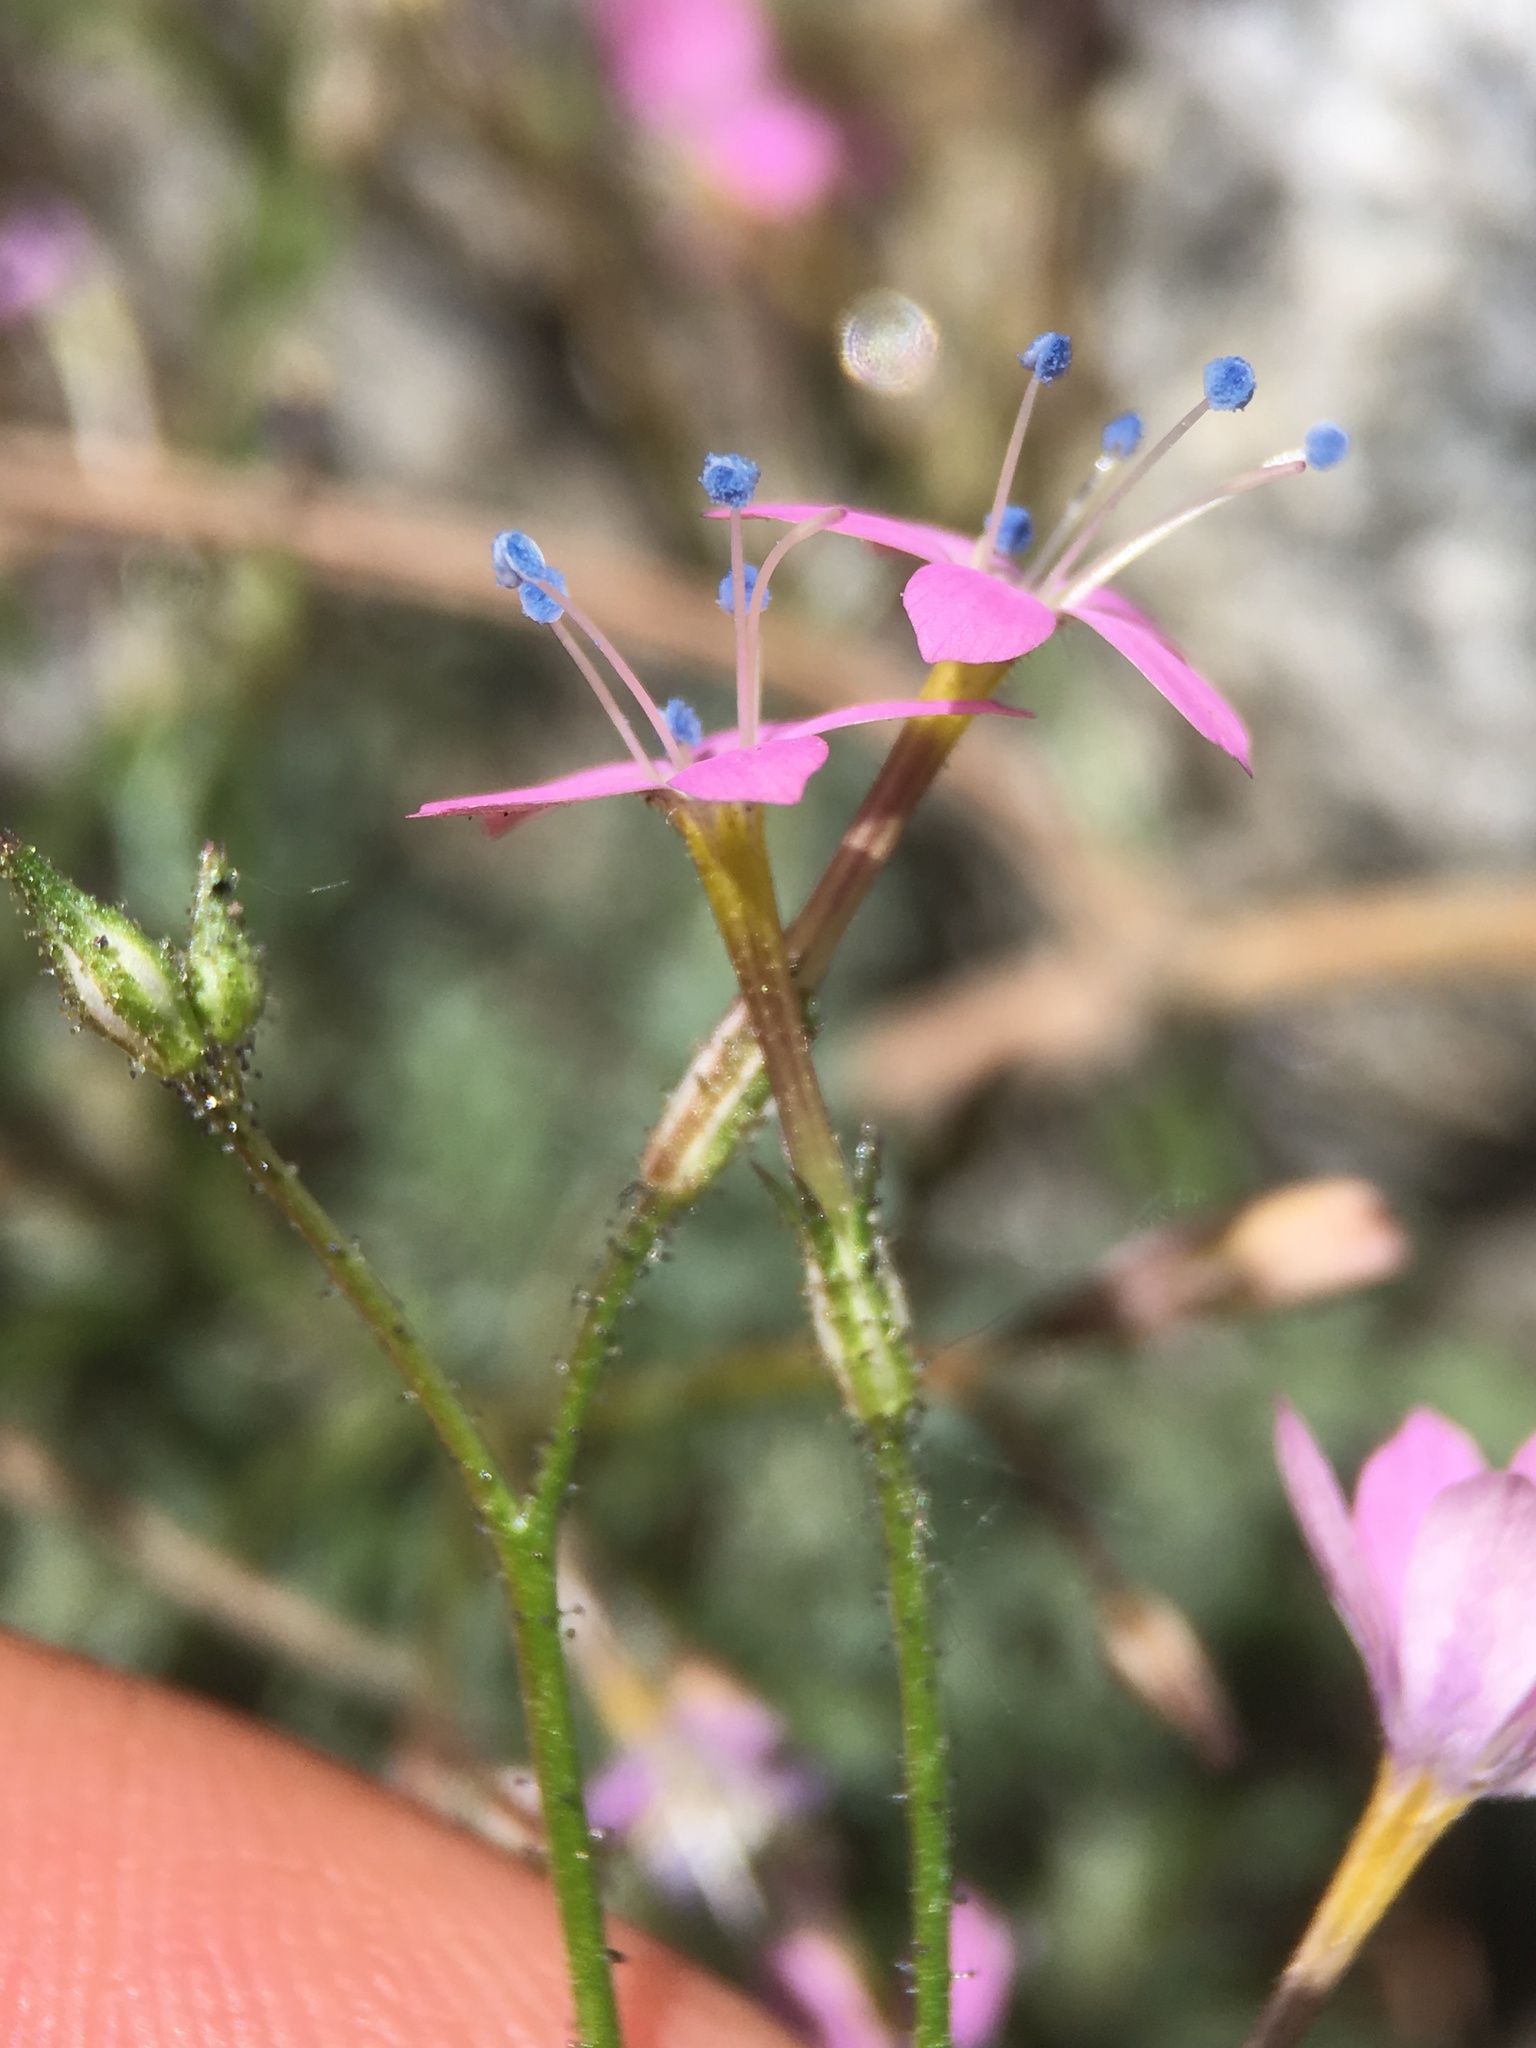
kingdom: Plantae
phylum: Tracheophyta
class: Magnoliopsida
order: Ericales
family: Polemoniaceae
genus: Gilia
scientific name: Gilia leptantha
